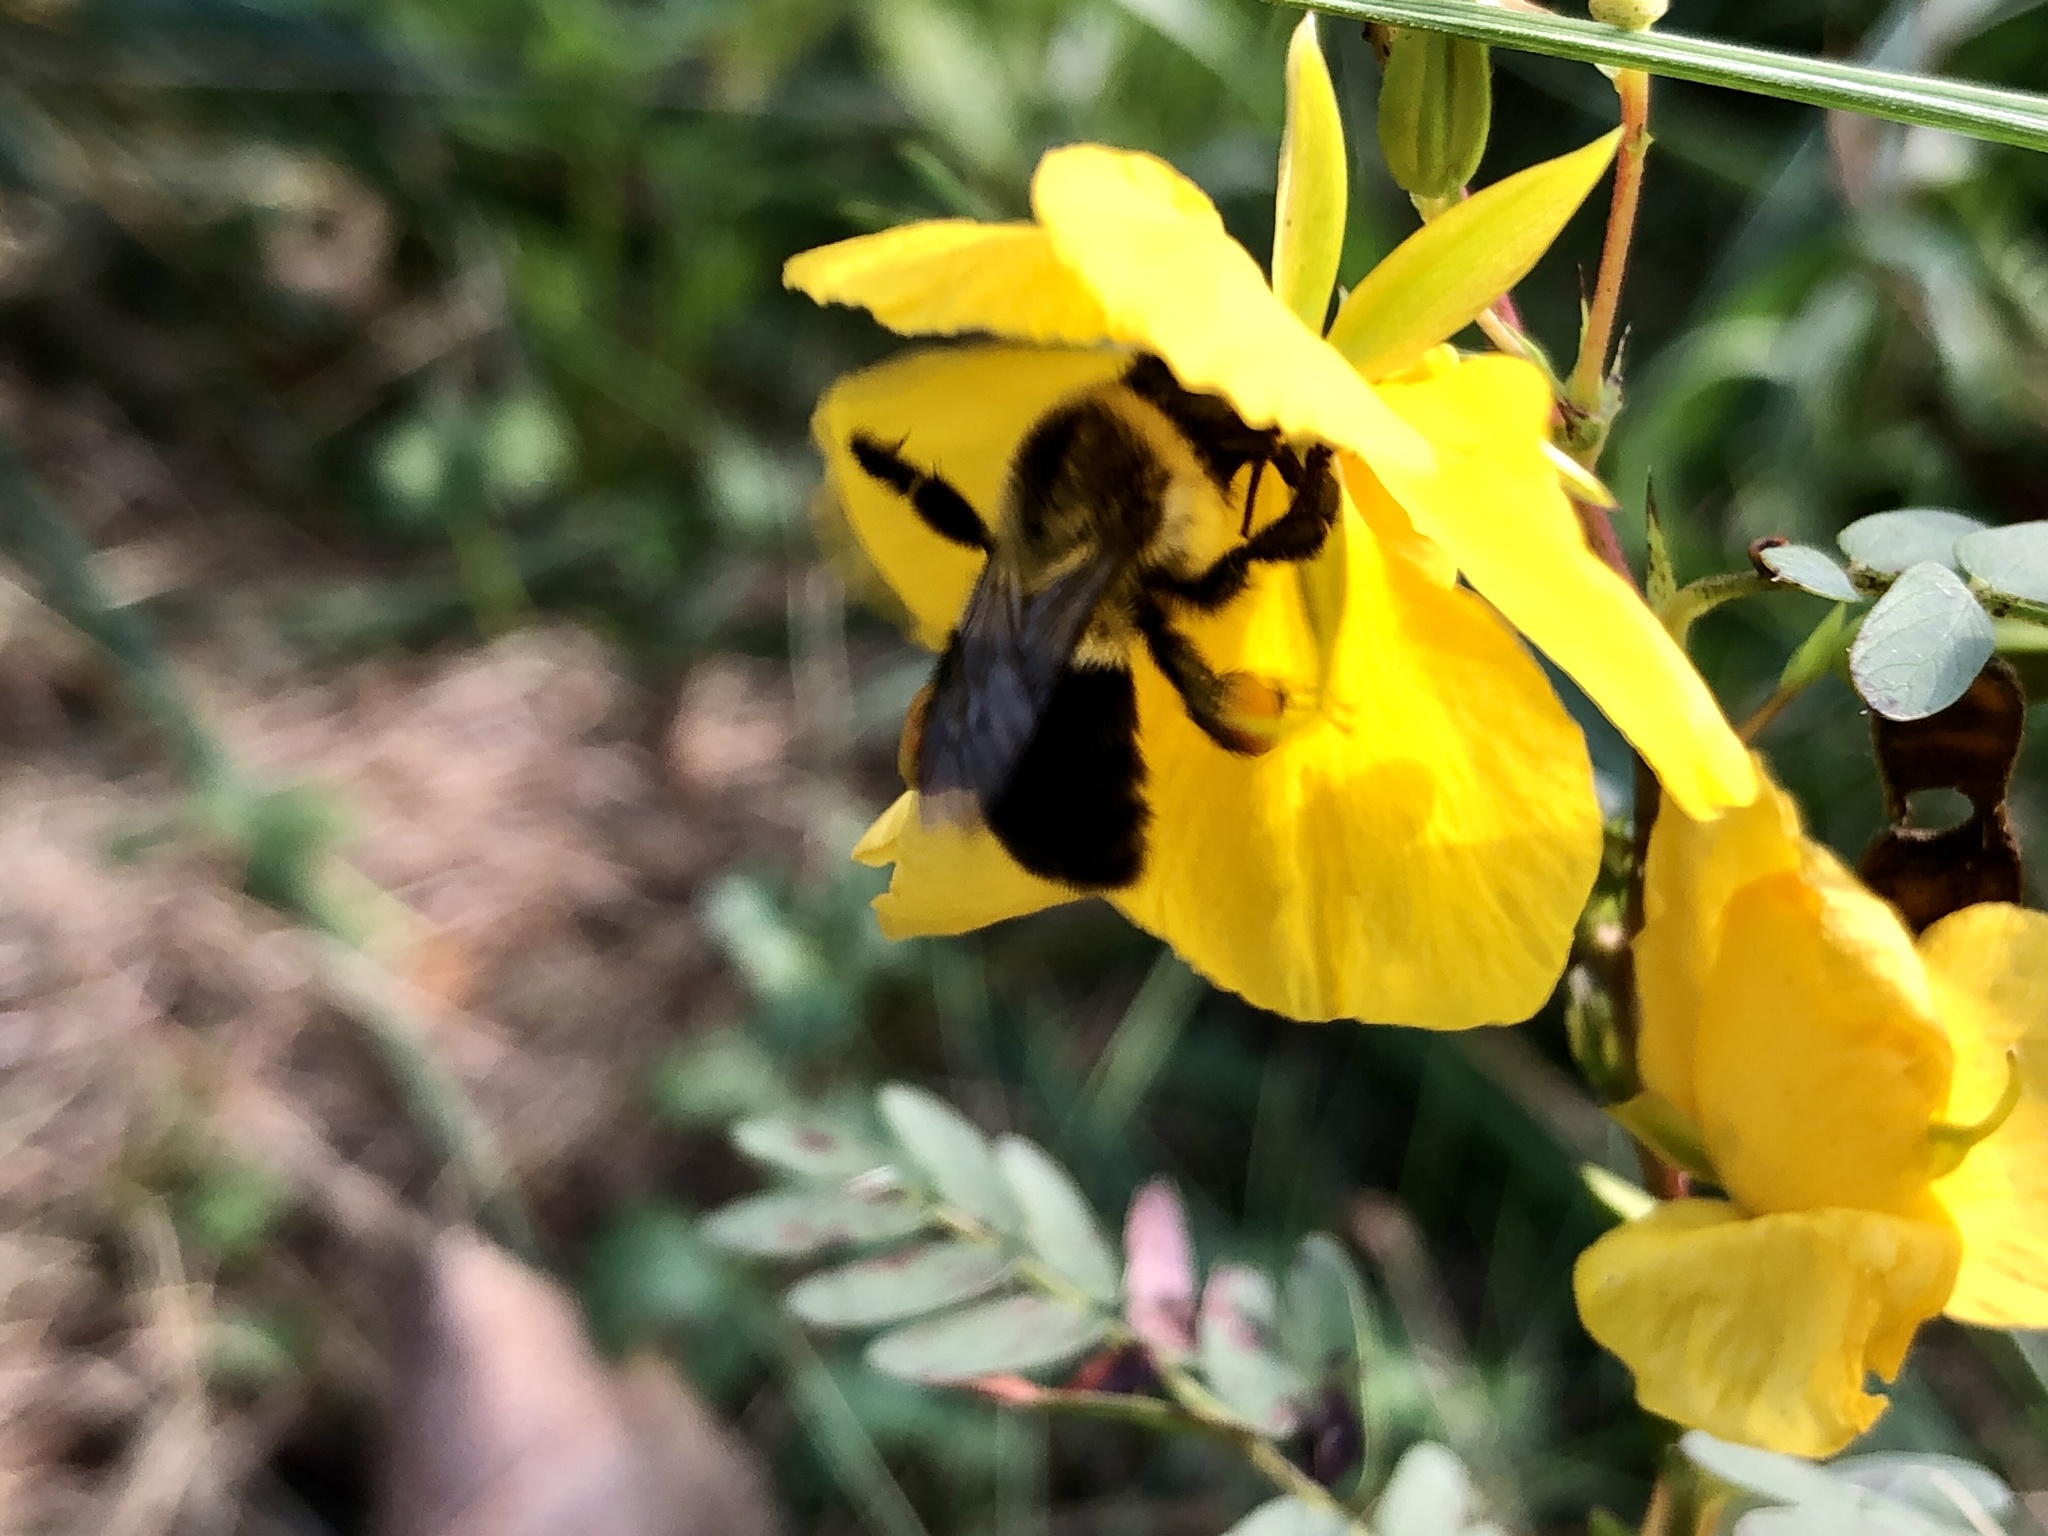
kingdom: Animalia
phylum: Arthropoda
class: Insecta
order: Hymenoptera
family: Apidae
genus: Bombus
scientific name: Bombus impatiens
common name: Common eastern bumble bee
